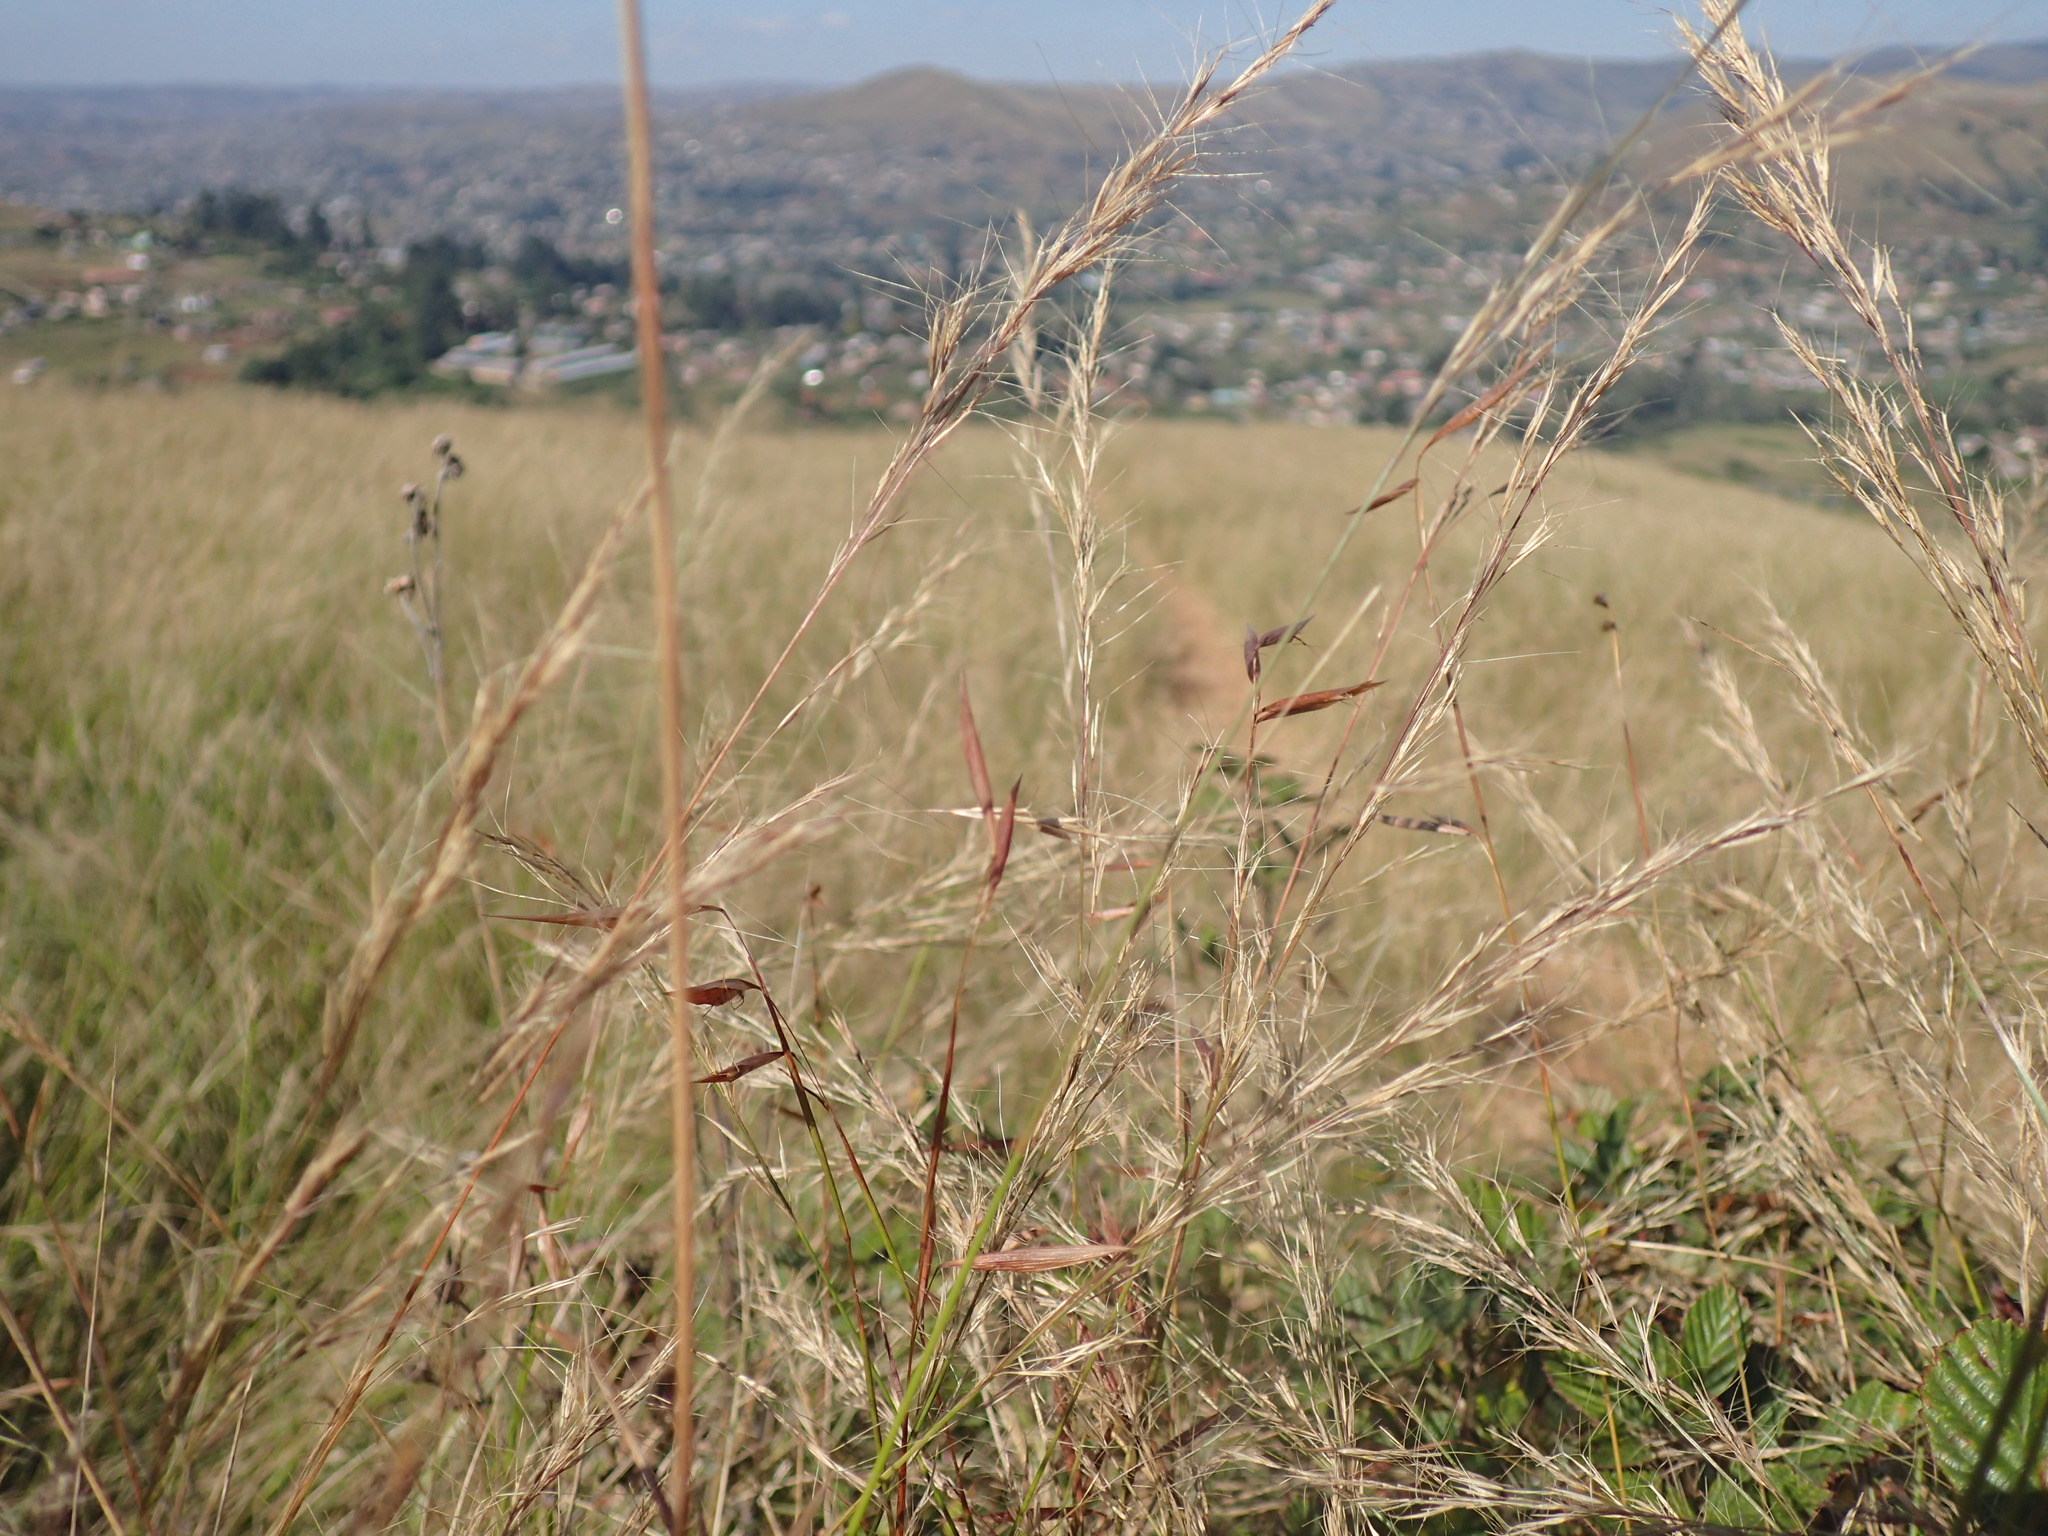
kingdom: Plantae
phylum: Tracheophyta
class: Liliopsida
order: Poales
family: Poaceae
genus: Monocymbium
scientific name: Monocymbium ceresiiforme
